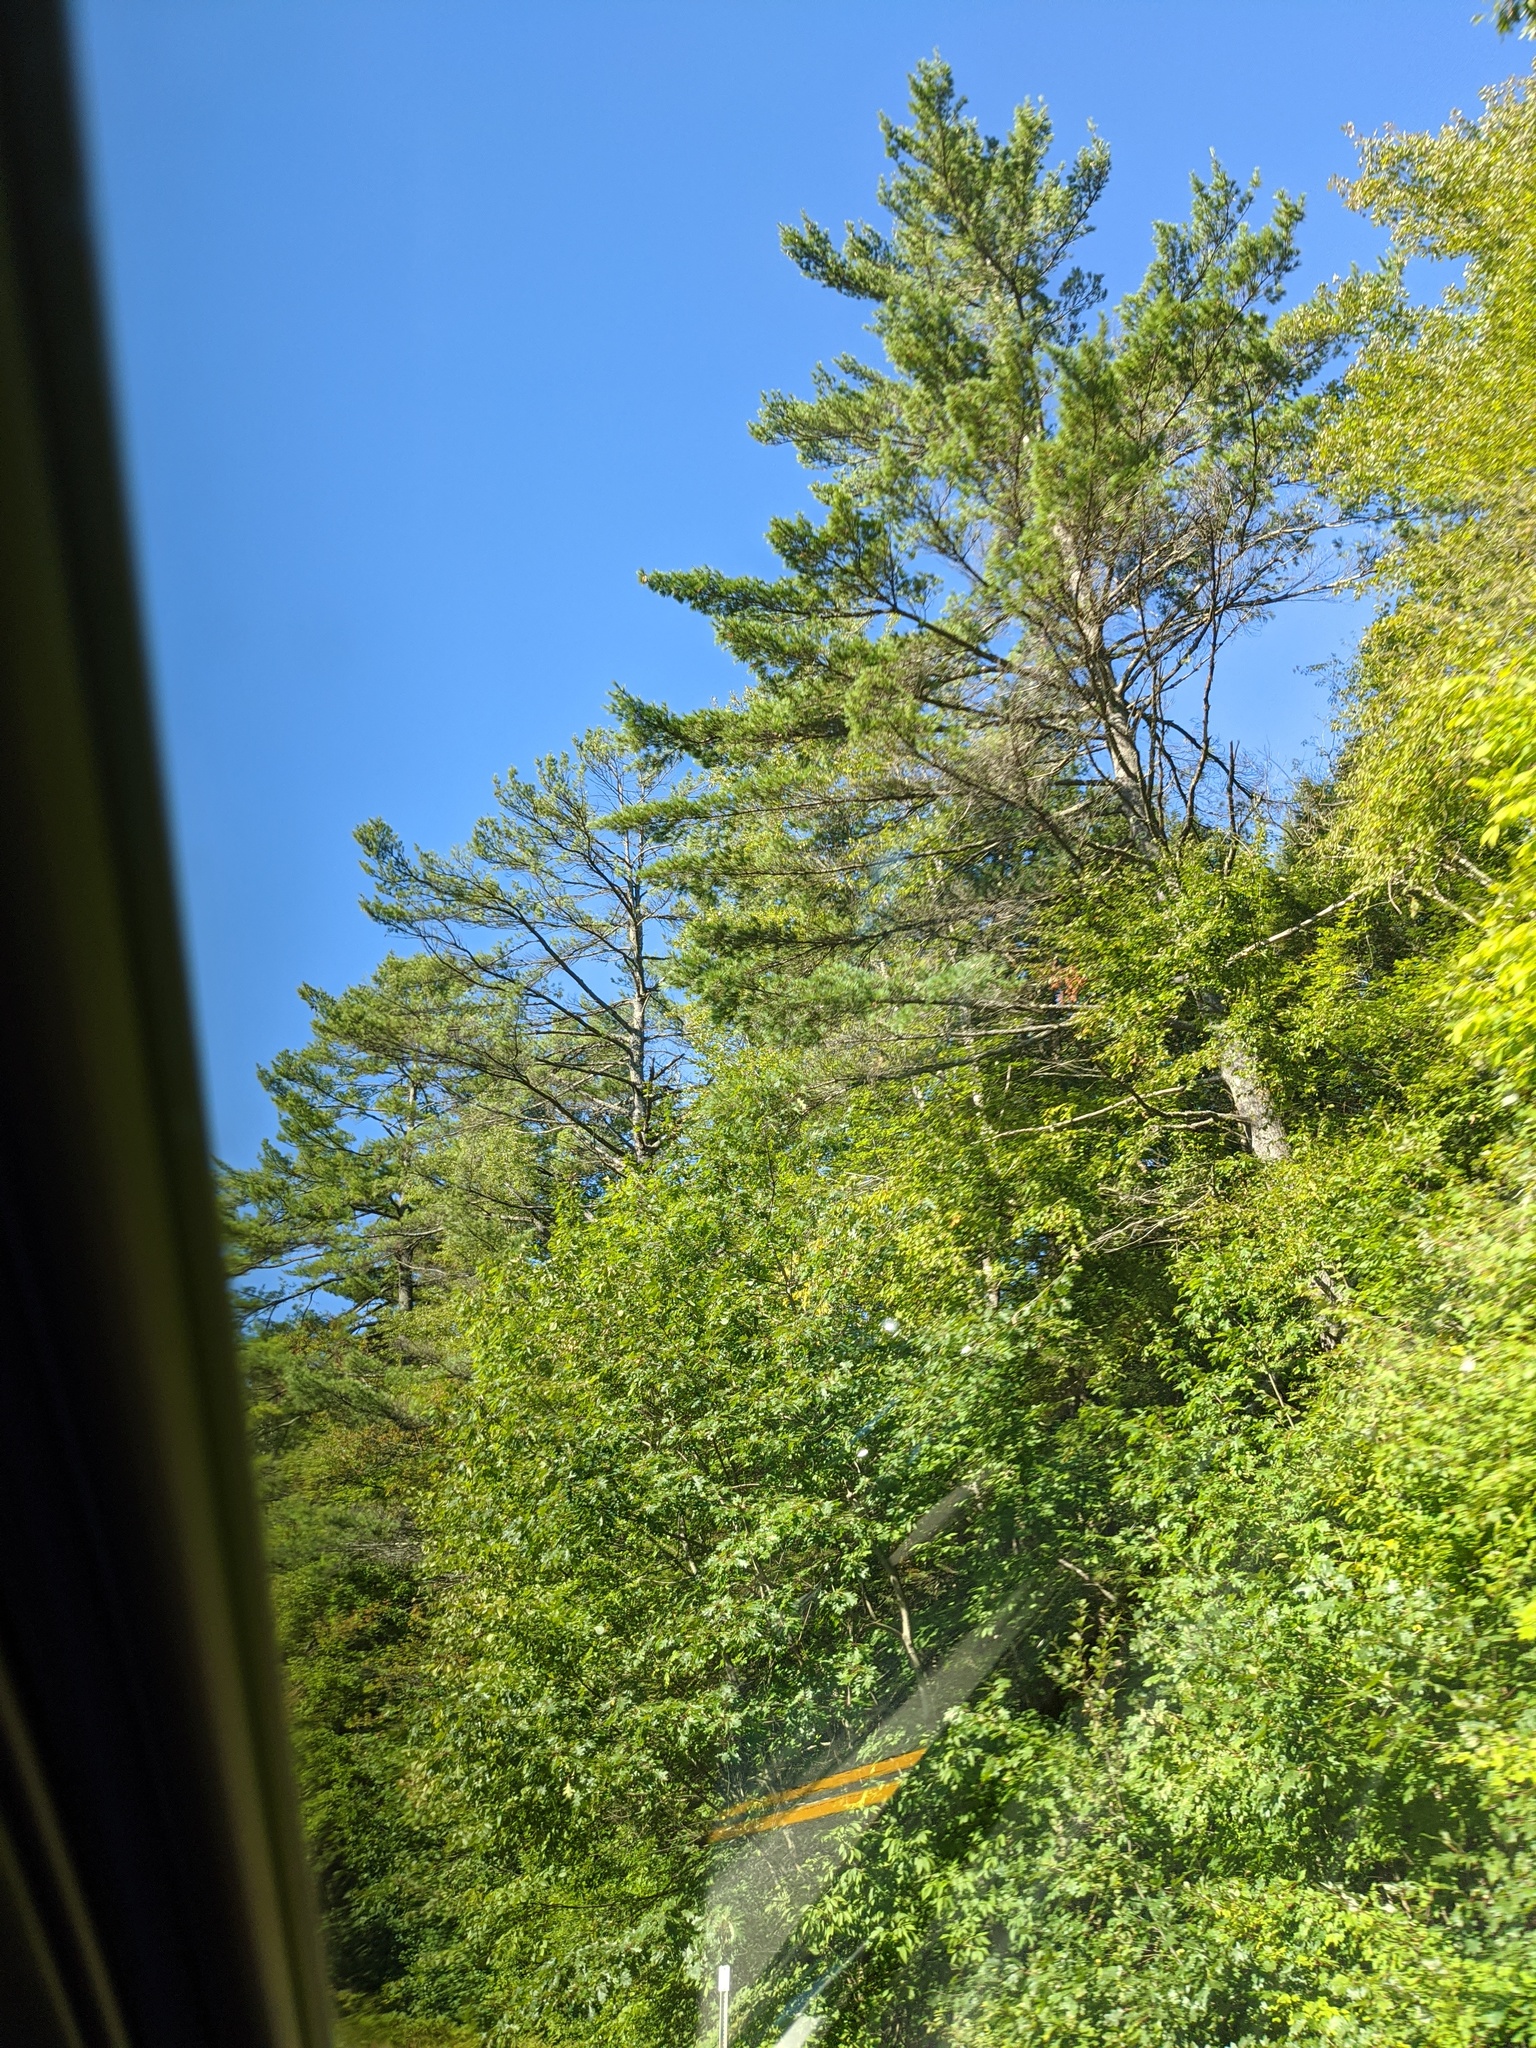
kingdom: Plantae
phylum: Tracheophyta
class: Pinopsida
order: Pinales
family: Pinaceae
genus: Pinus
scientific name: Pinus strobus
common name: Weymouth pine
